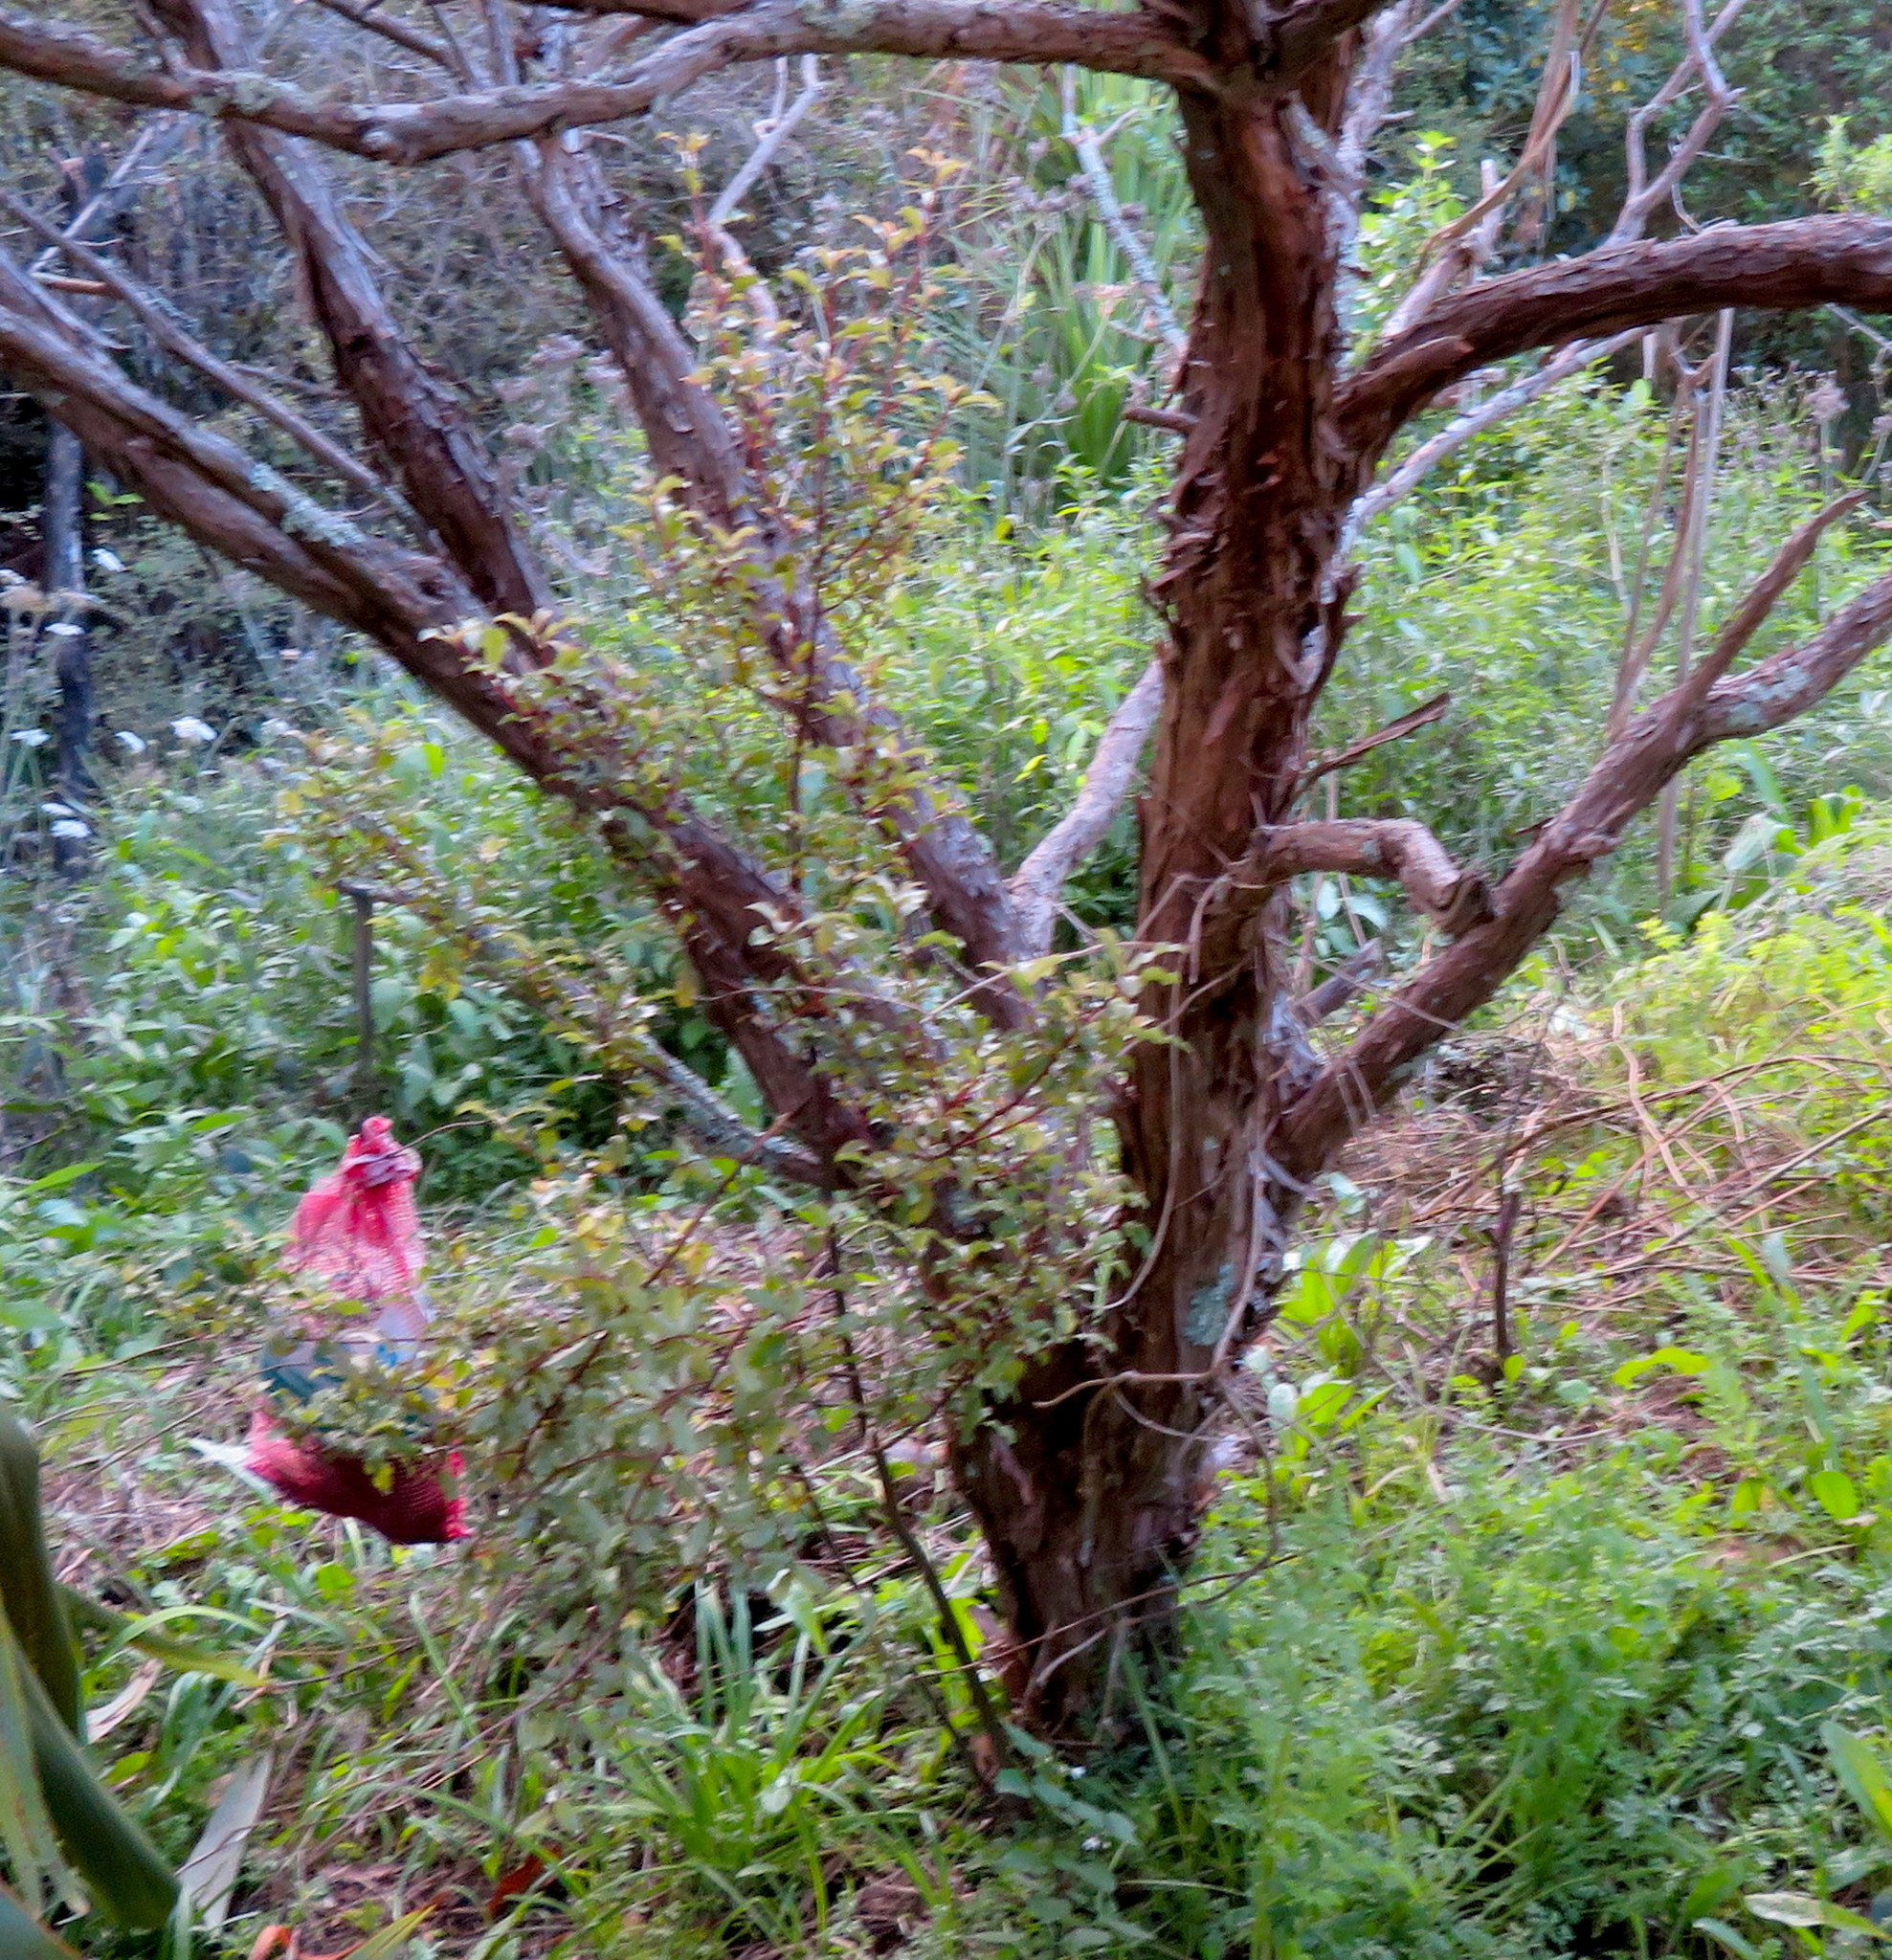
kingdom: Plantae
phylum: Tracheophyta
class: Magnoliopsida
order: Ericales
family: Primulaceae
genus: Myrsine
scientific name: Myrsine australis
